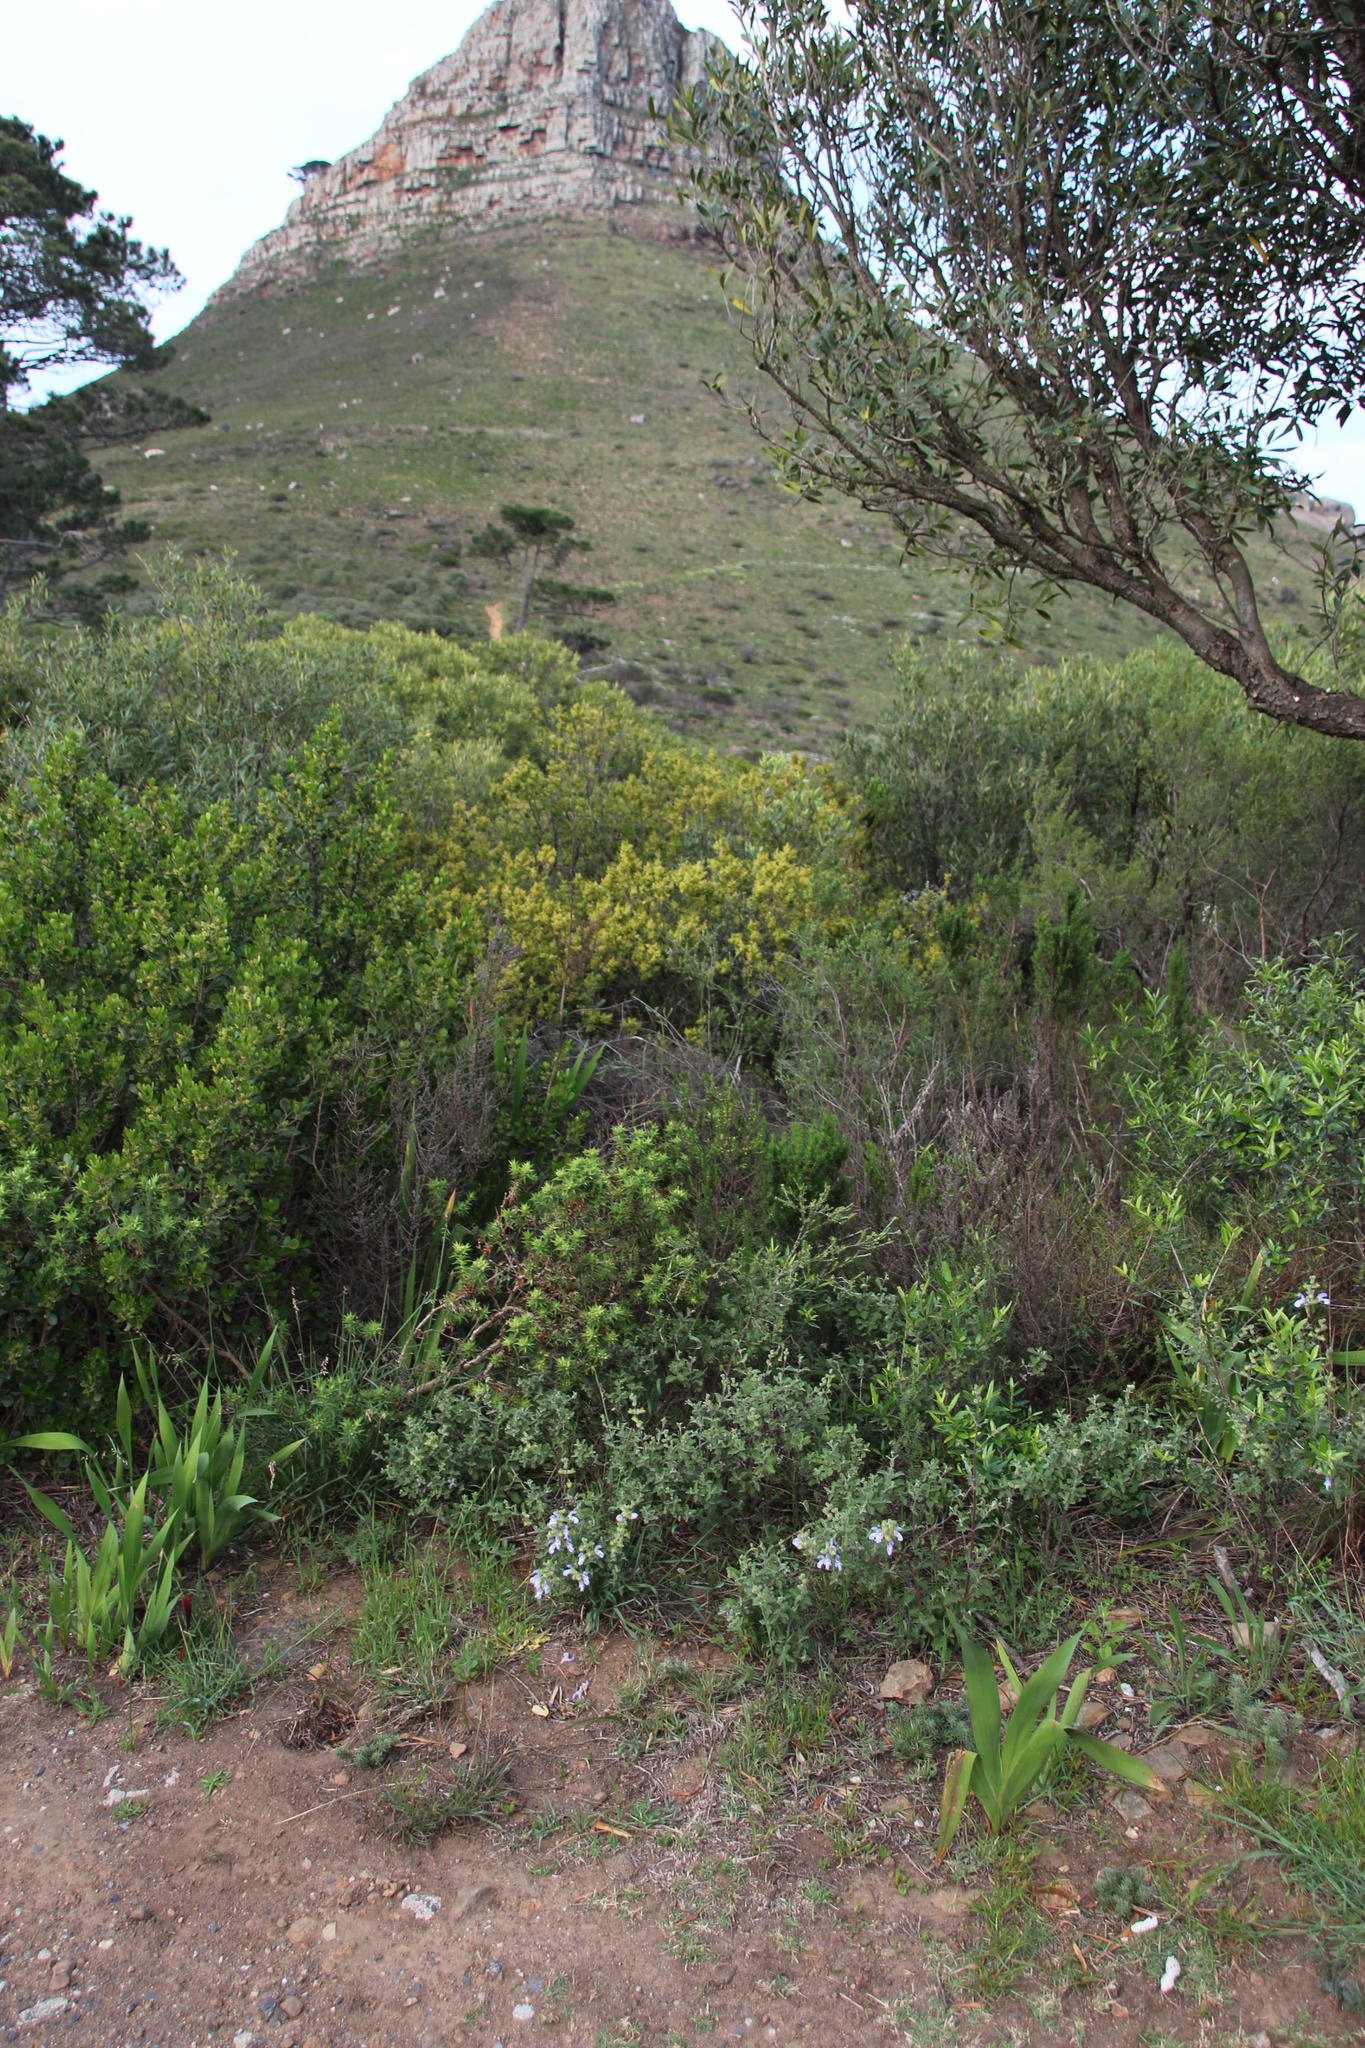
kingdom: Plantae
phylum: Tracheophyta
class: Magnoliopsida
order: Lamiales
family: Lamiaceae
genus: Salvia
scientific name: Salvia chamelaeagnea
